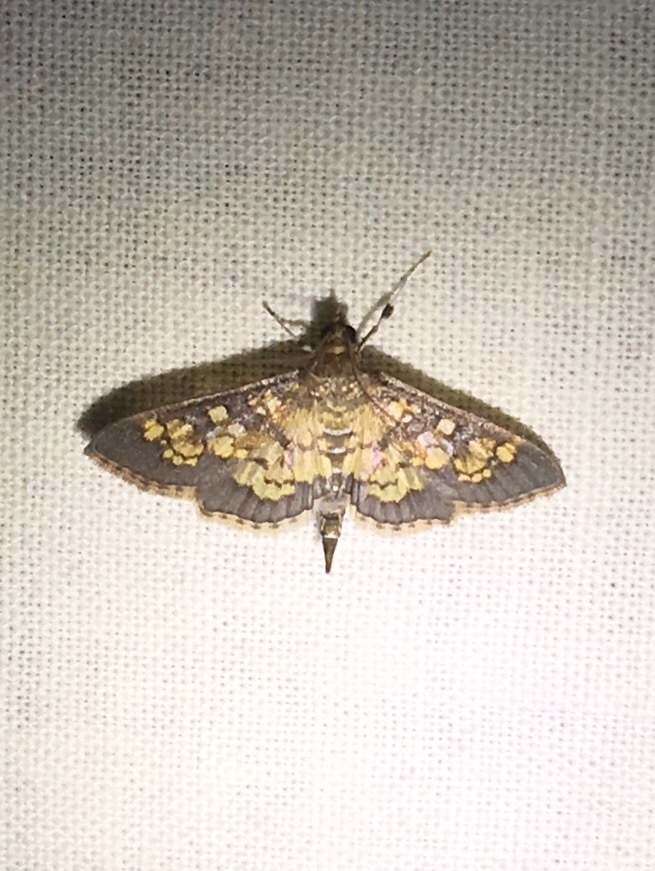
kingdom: Animalia
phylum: Arthropoda
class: Insecta
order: Lepidoptera
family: Crambidae
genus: Epipagis
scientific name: Epipagis adipaloides
